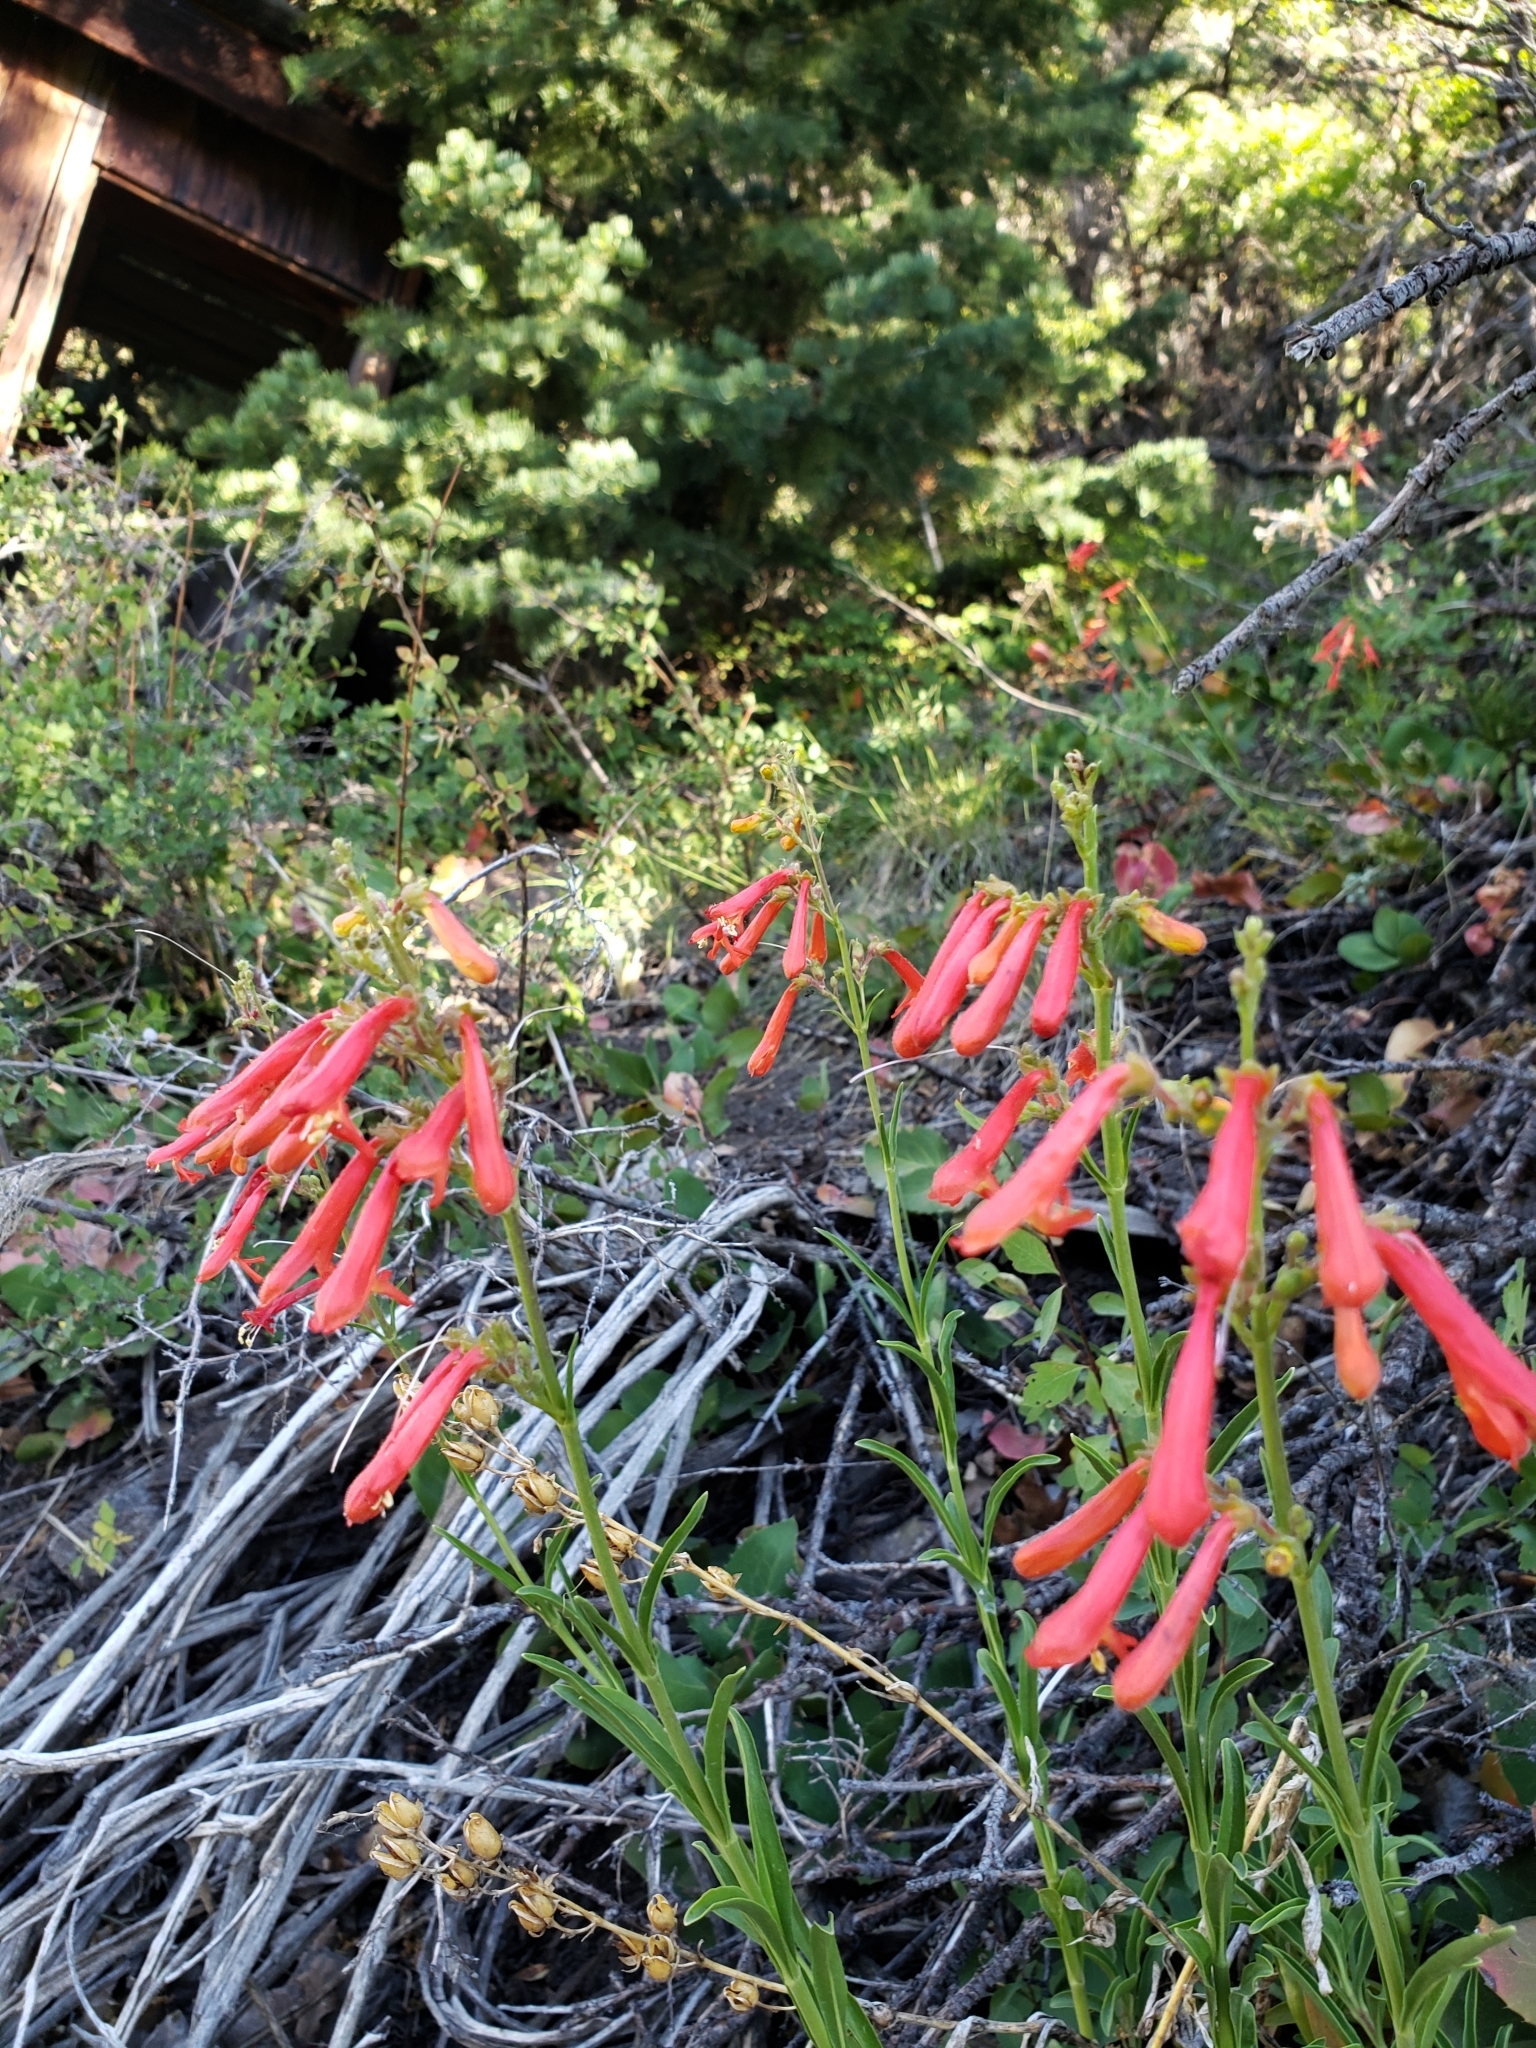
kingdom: Plantae
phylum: Tracheophyta
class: Magnoliopsida
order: Lamiales
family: Plantaginaceae
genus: Penstemon
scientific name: Penstemon rostriflorus
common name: Bridges's penstemon
